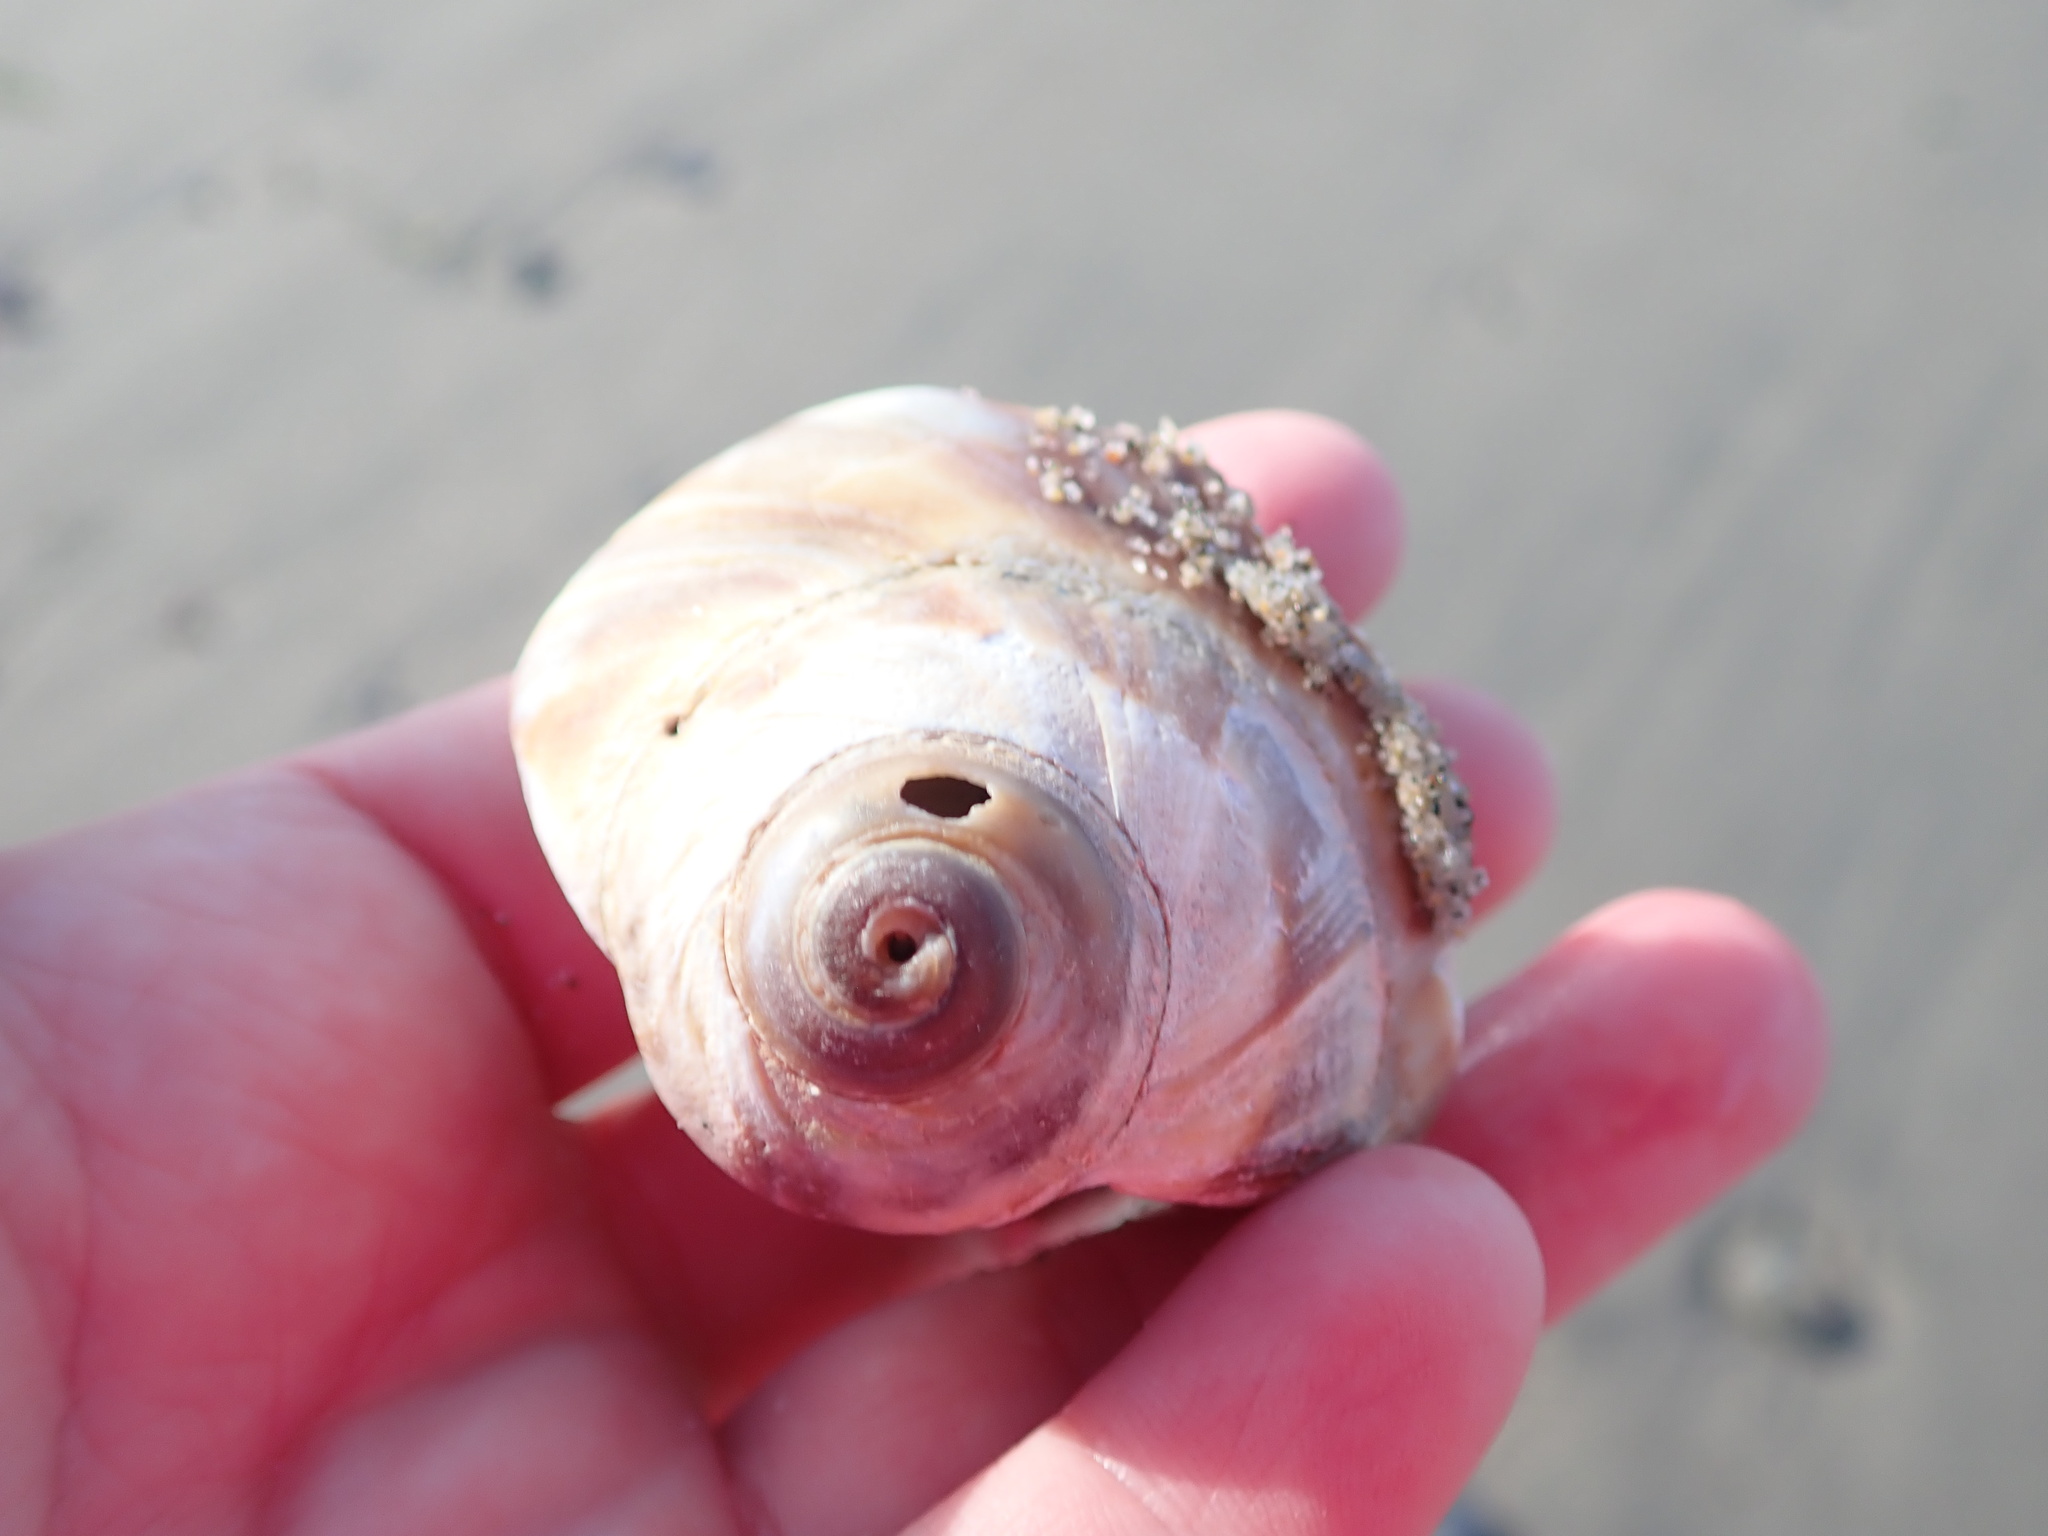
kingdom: Animalia
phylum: Mollusca
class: Gastropoda
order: Littorinimorpha
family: Naticidae
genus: Euspira
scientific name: Euspira heros
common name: Common northern moonsnail
